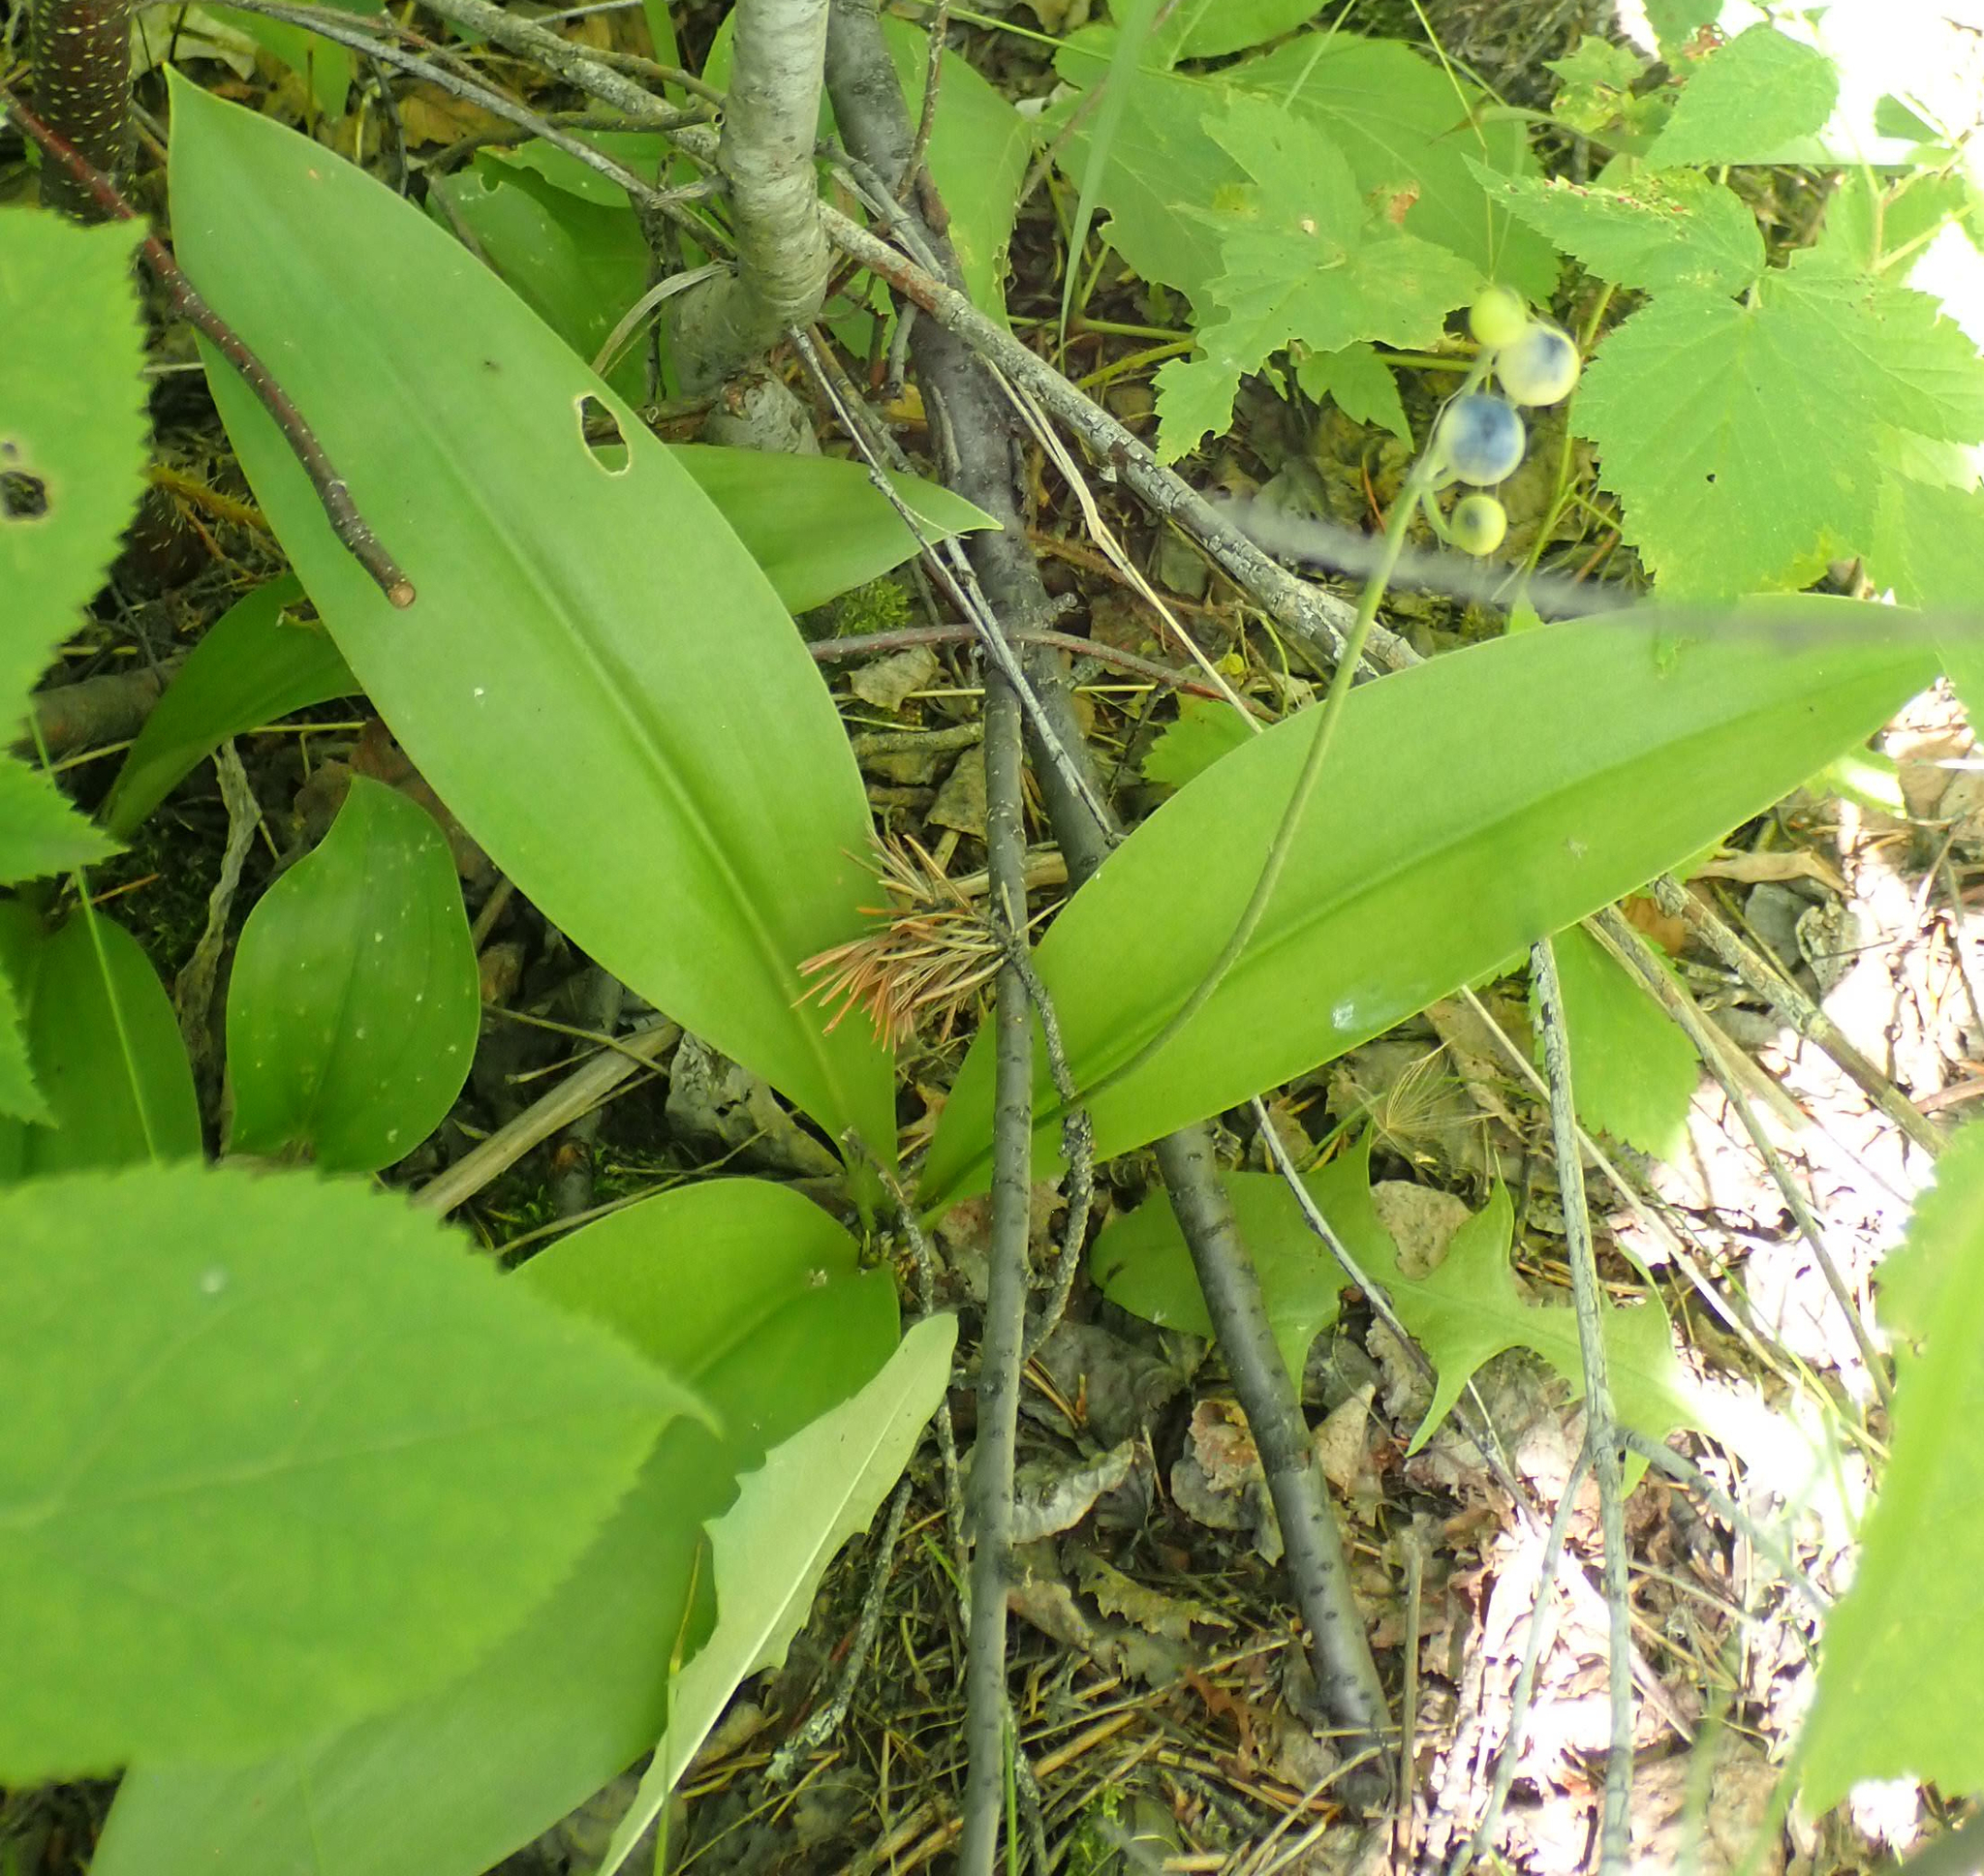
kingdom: Plantae
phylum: Tracheophyta
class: Liliopsida
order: Liliales
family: Liliaceae
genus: Clintonia
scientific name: Clintonia borealis
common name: Yellow clintonia
